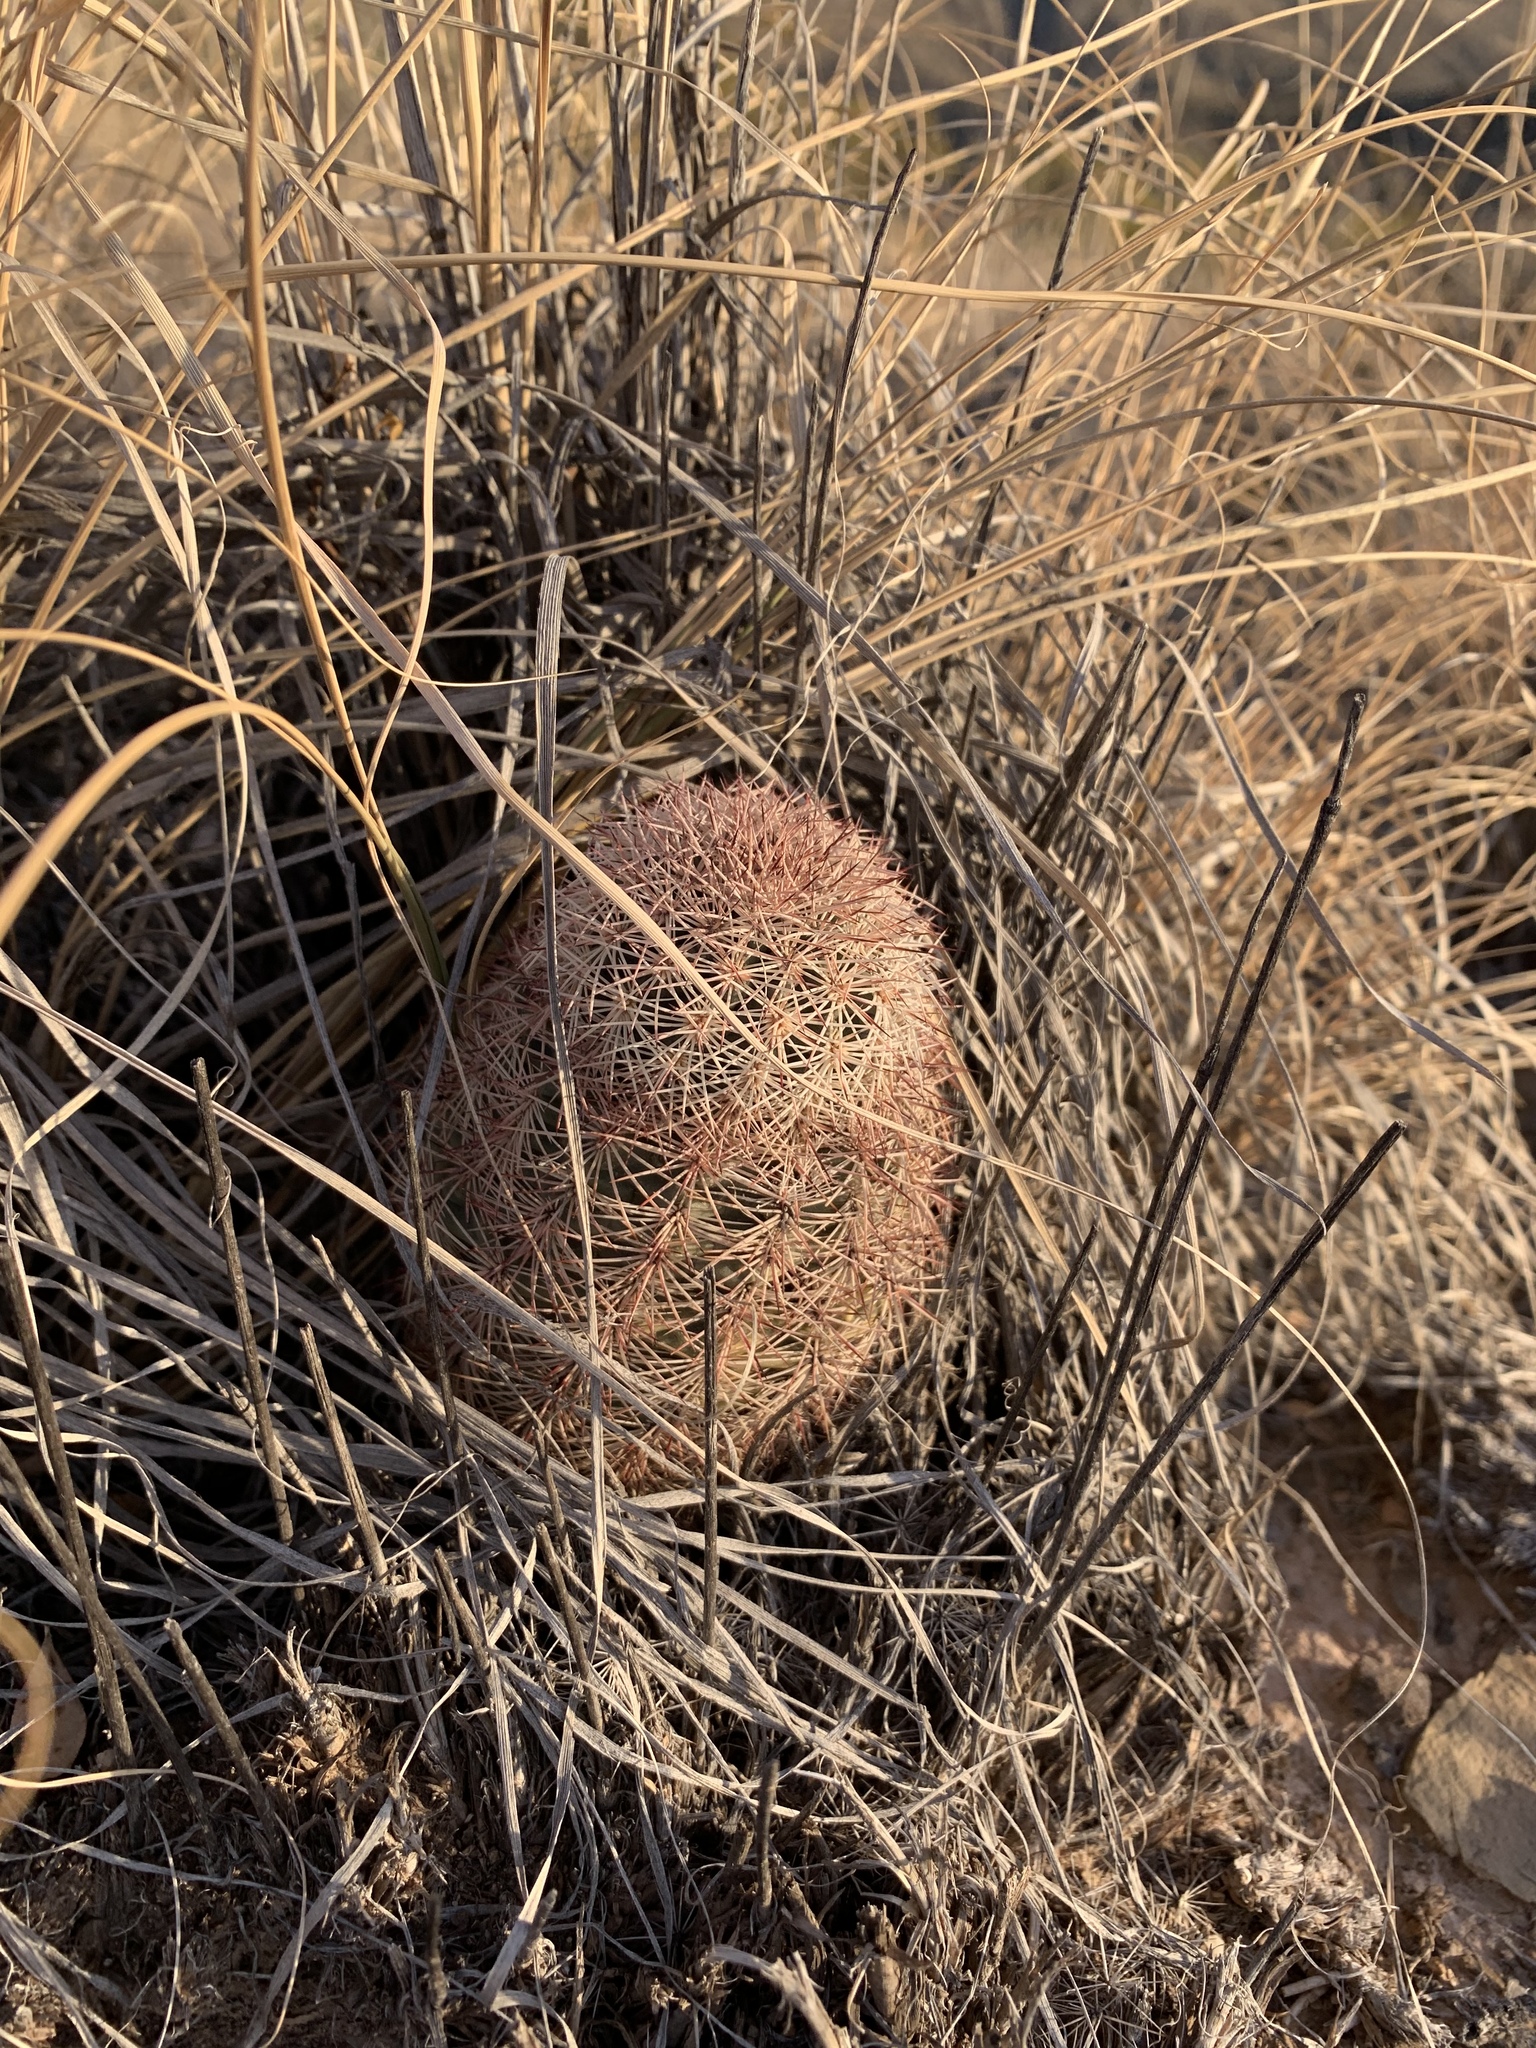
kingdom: Plantae
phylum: Tracheophyta
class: Magnoliopsida
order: Caryophyllales
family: Cactaceae
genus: Echinocereus
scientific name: Echinocereus dasyacanthus
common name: Spiny hedgehog cactus
